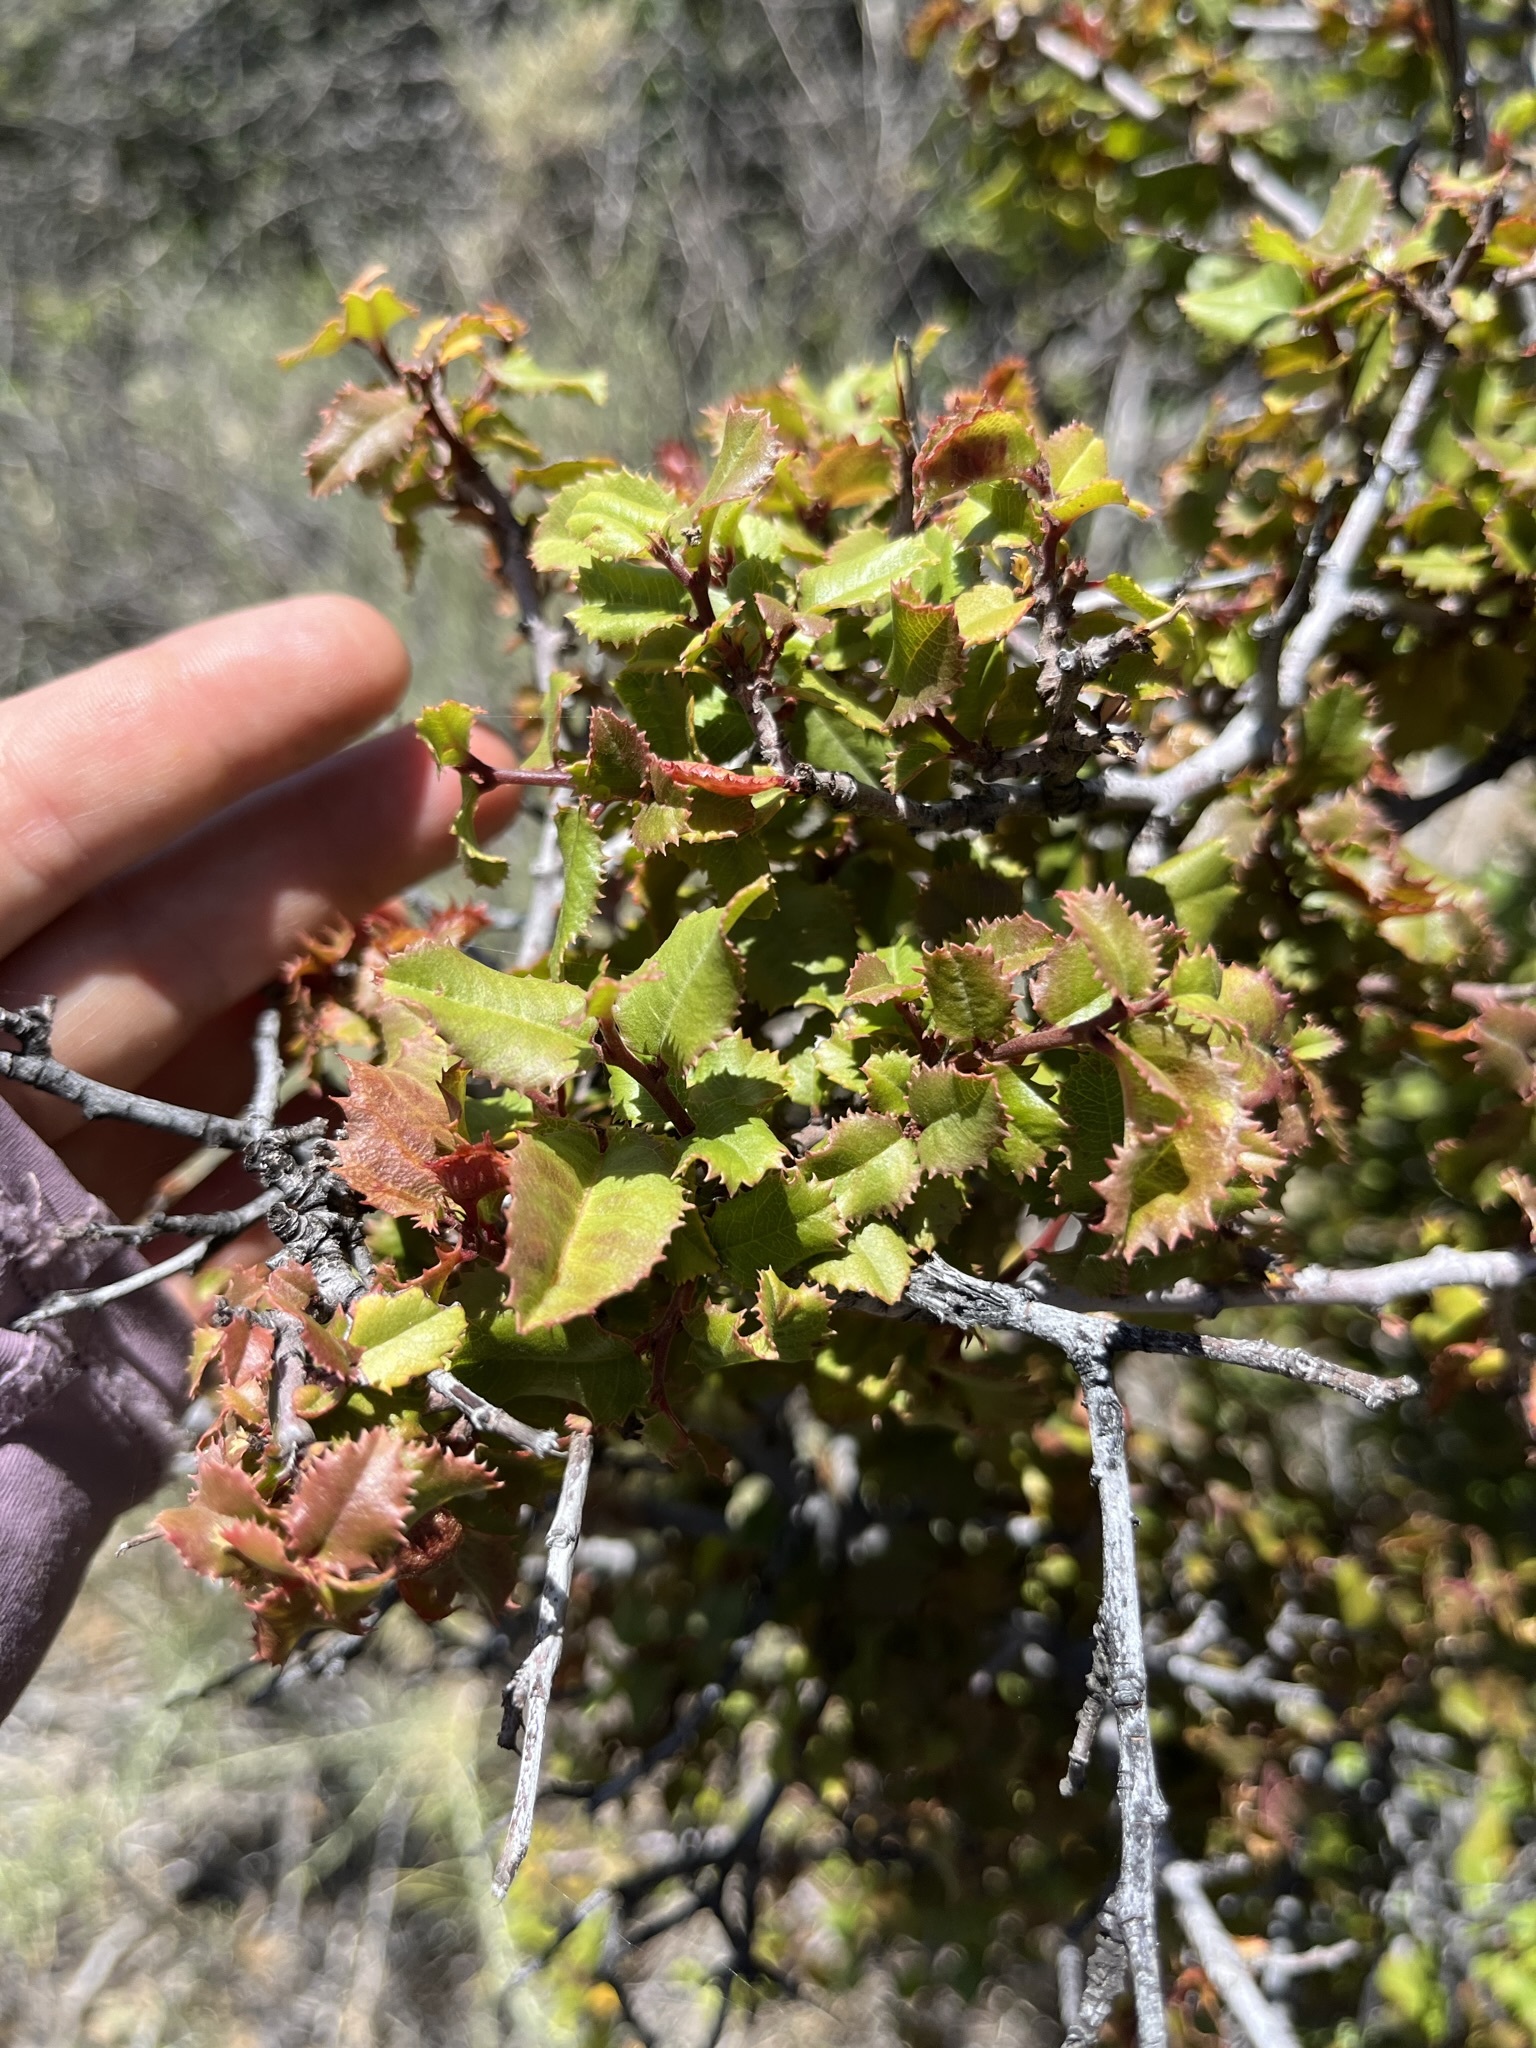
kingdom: Plantae
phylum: Tracheophyta
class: Magnoliopsida
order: Rosales
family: Rhamnaceae
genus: Endotropis
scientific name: Endotropis crocea
